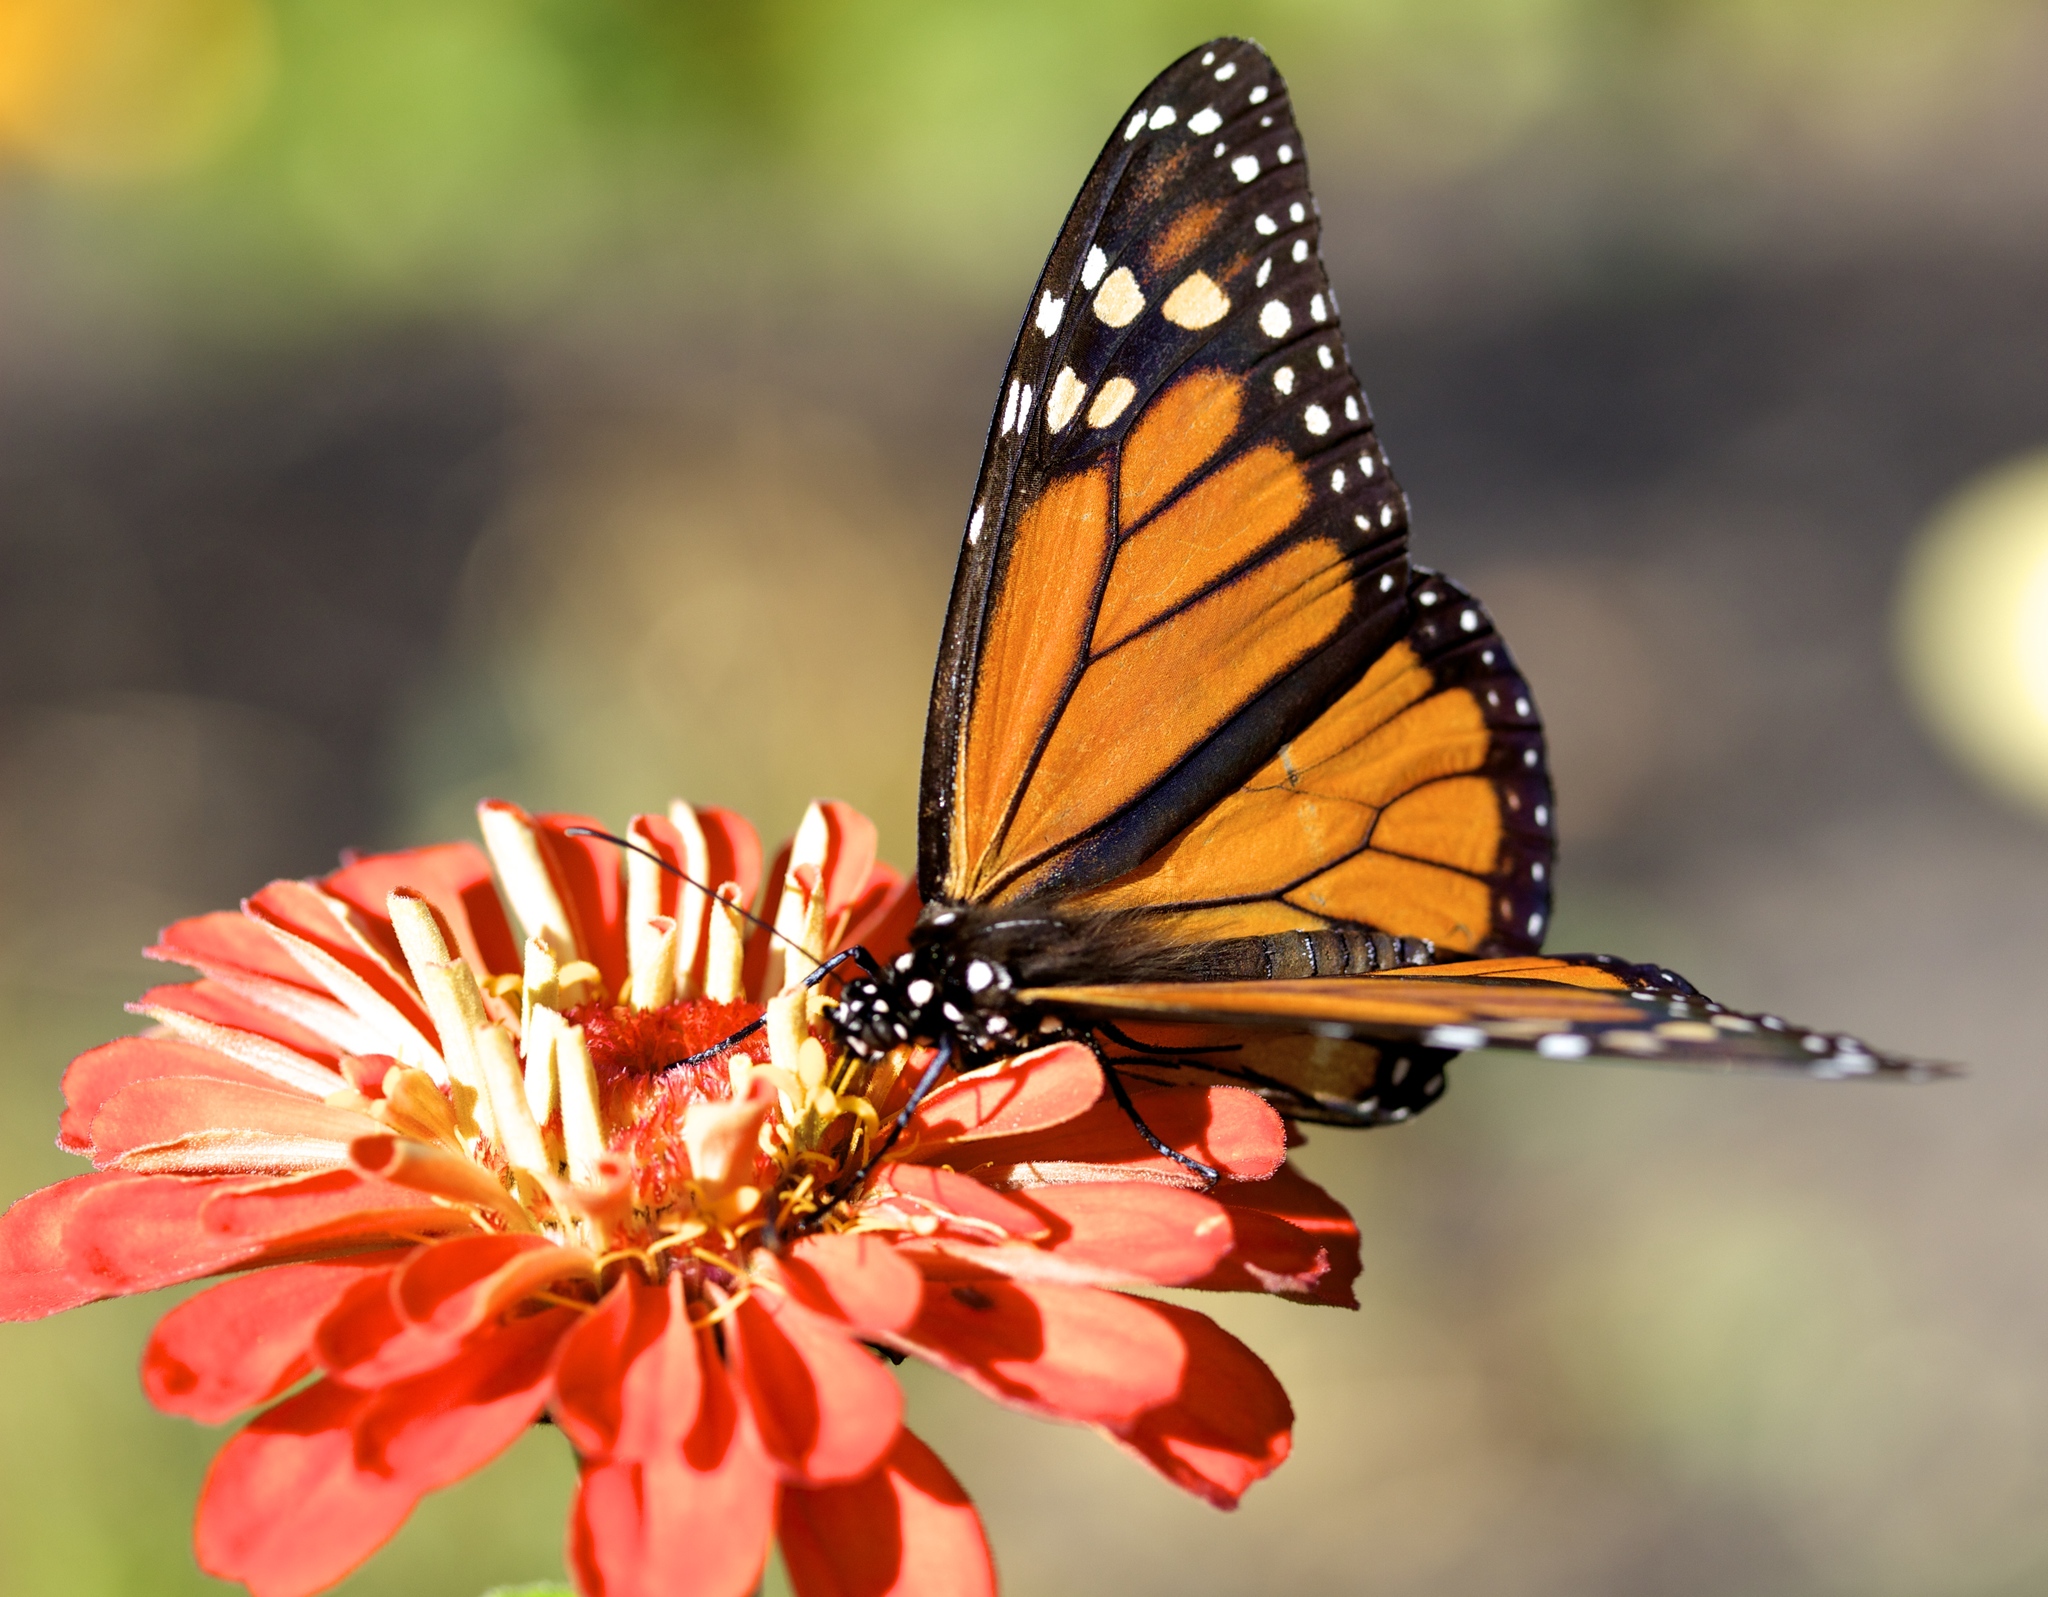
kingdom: Animalia
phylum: Arthropoda
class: Insecta
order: Lepidoptera
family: Nymphalidae
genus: Danaus
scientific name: Danaus plexippus
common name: Monarch
